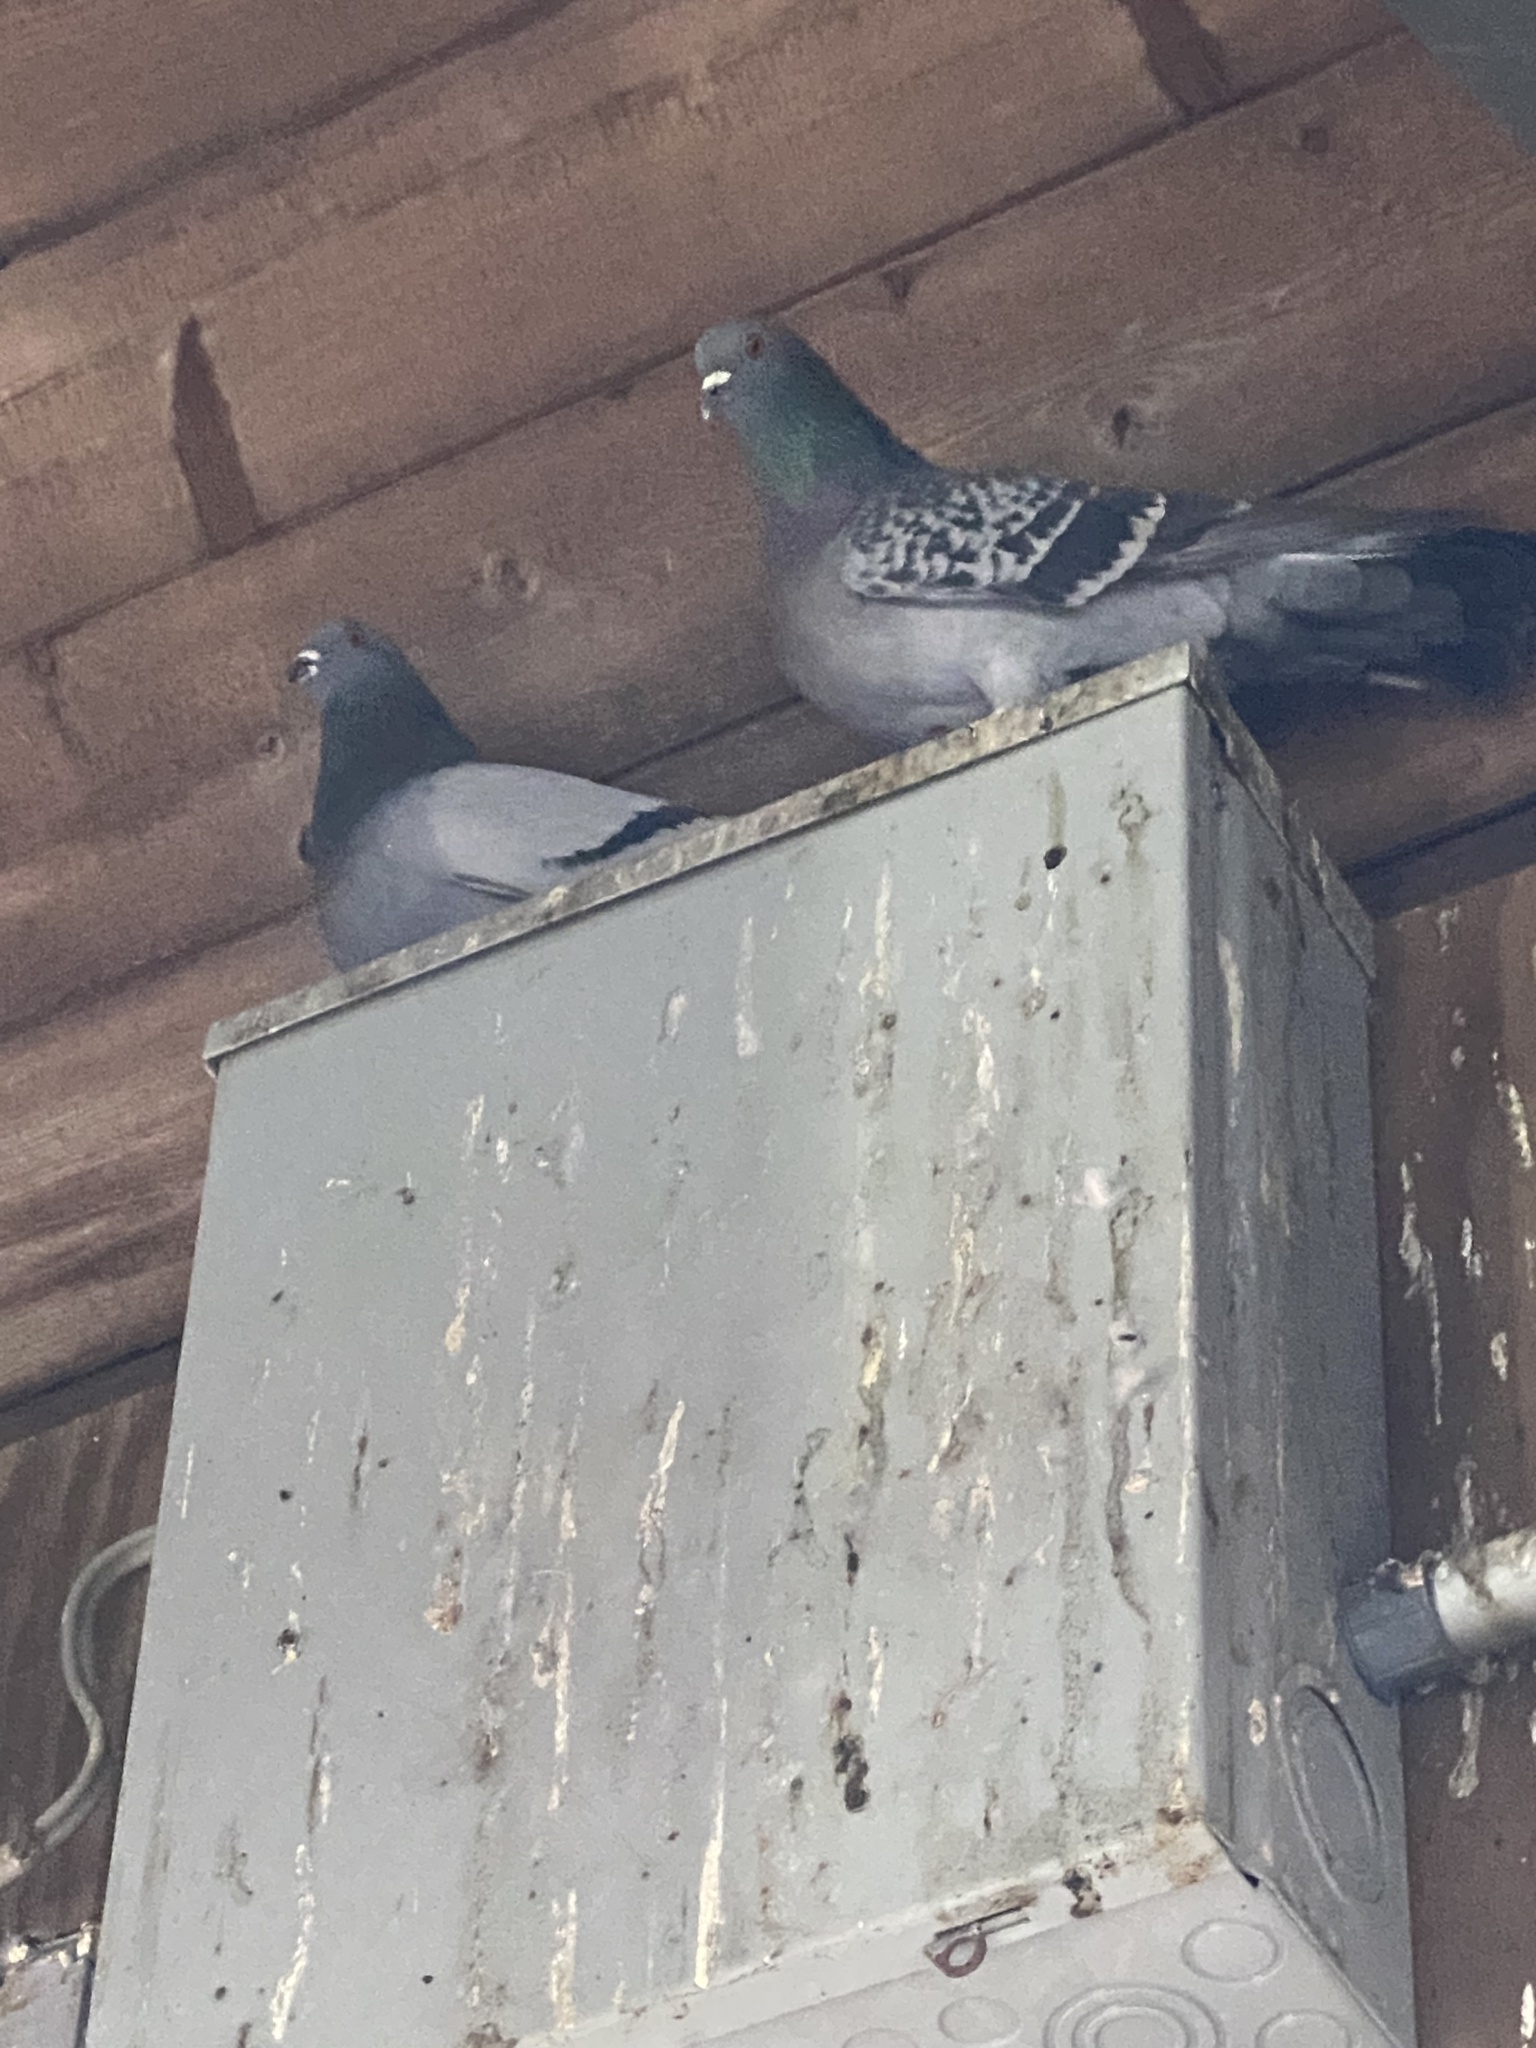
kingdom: Animalia
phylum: Chordata
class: Aves
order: Columbiformes
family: Columbidae
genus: Columba
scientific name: Columba livia
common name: Rock pigeon
